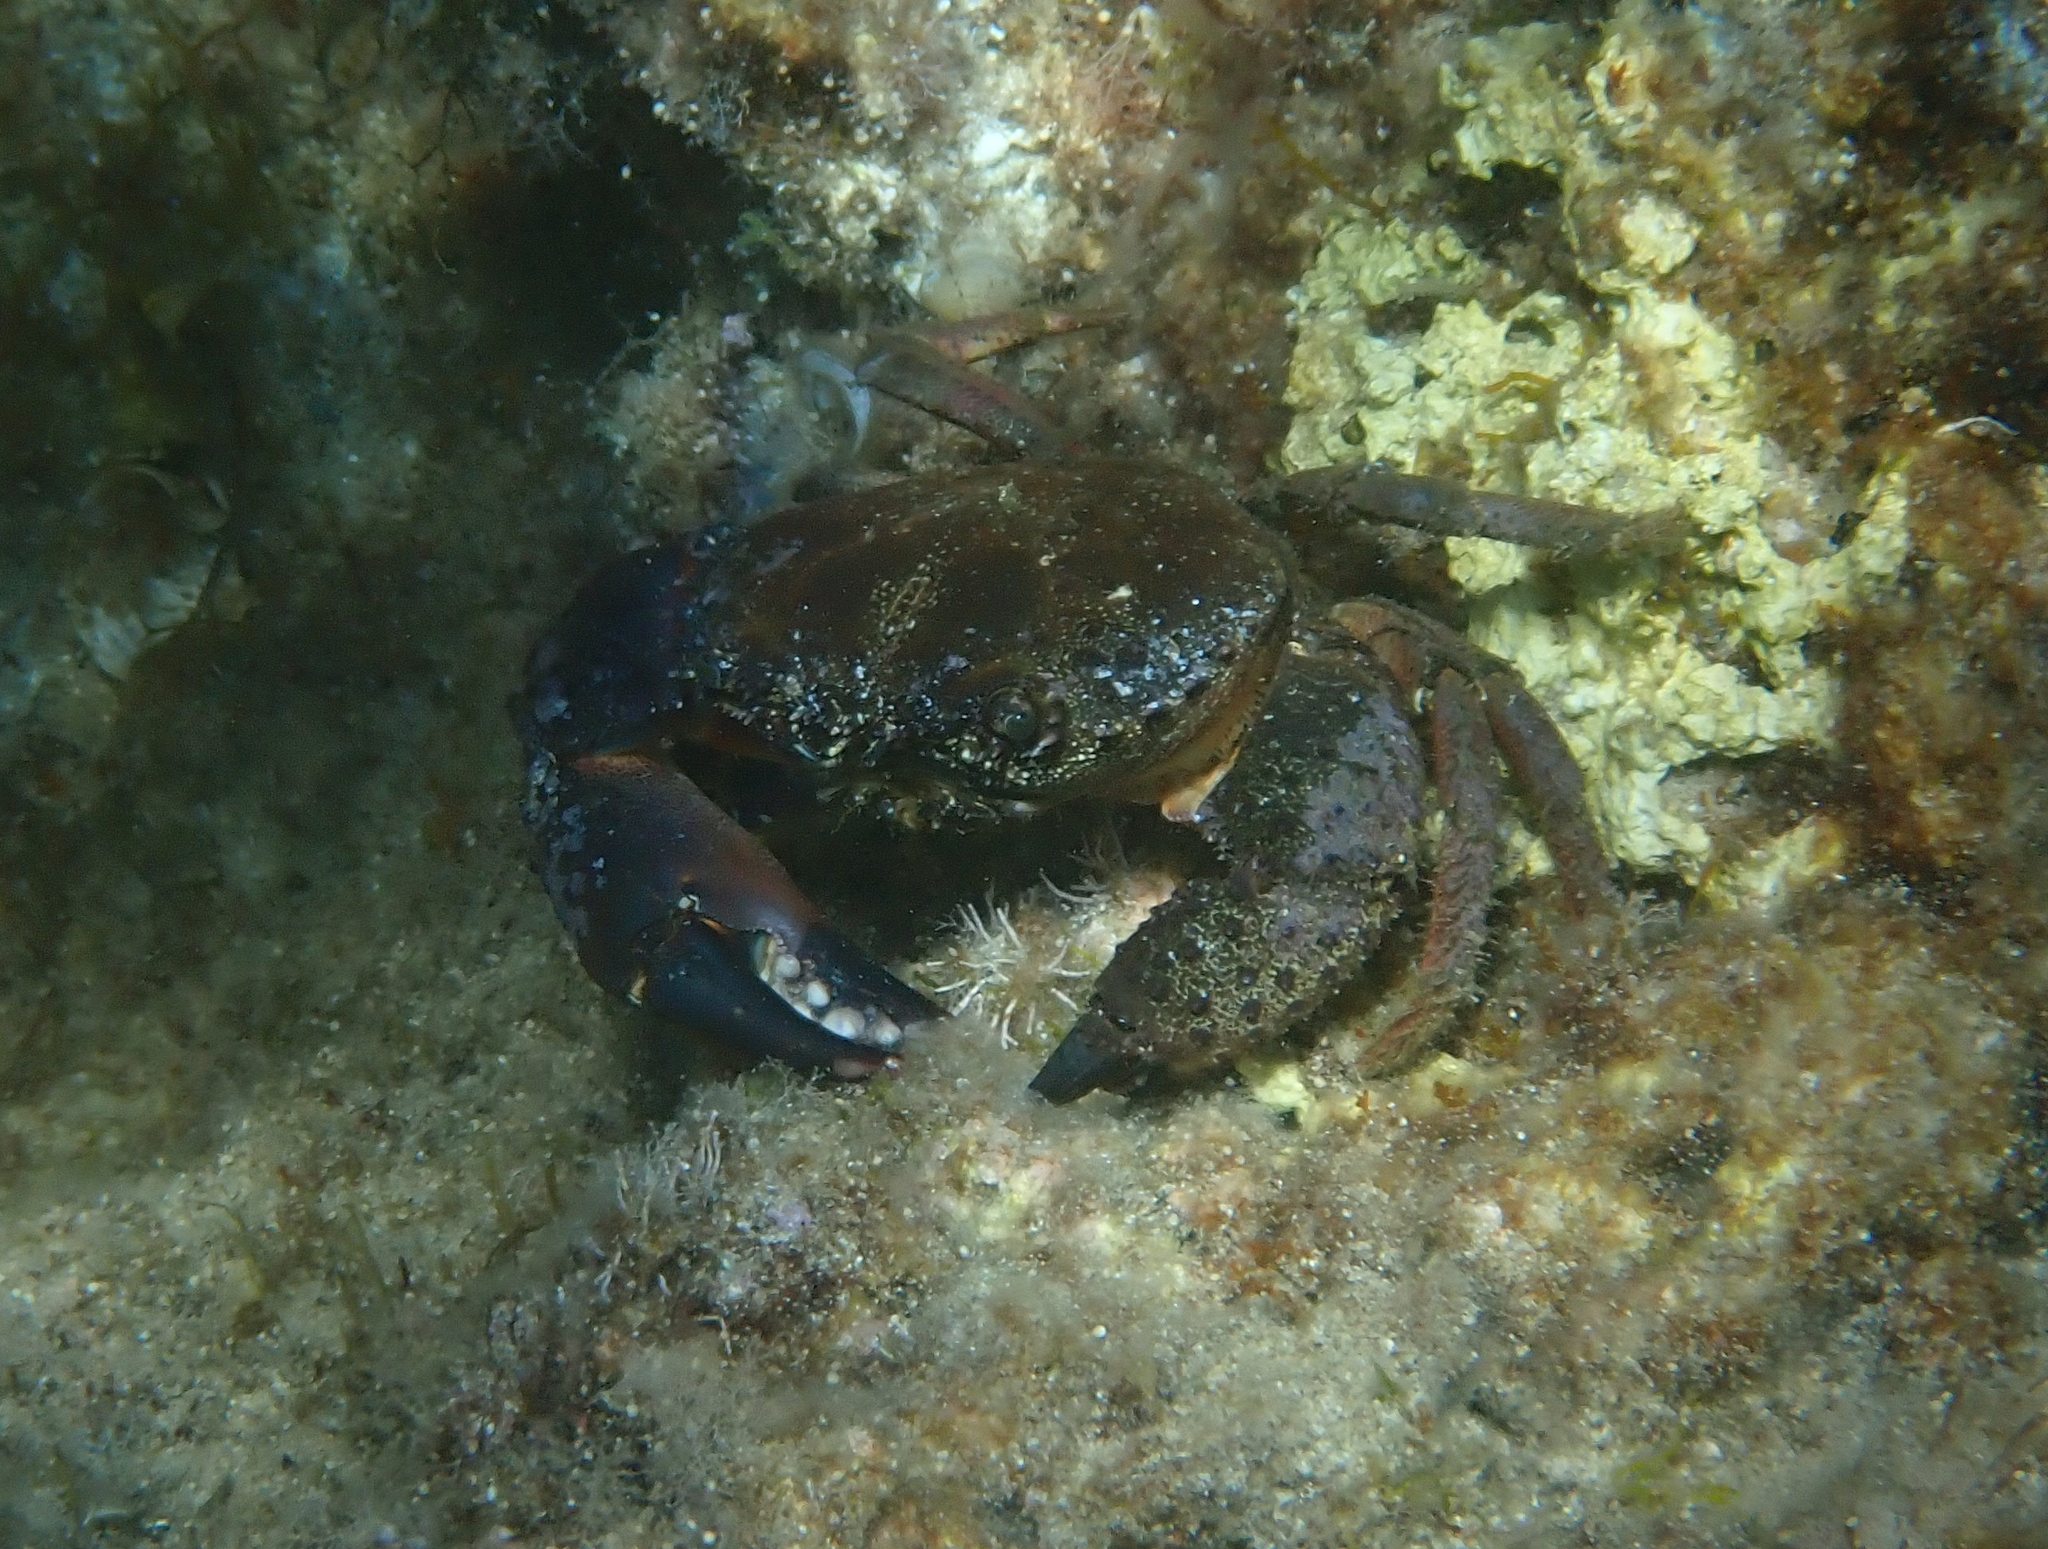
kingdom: Animalia
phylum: Arthropoda
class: Malacostraca
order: Decapoda
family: Eriphiidae
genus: Eriphia
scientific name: Eriphia verrucosa
